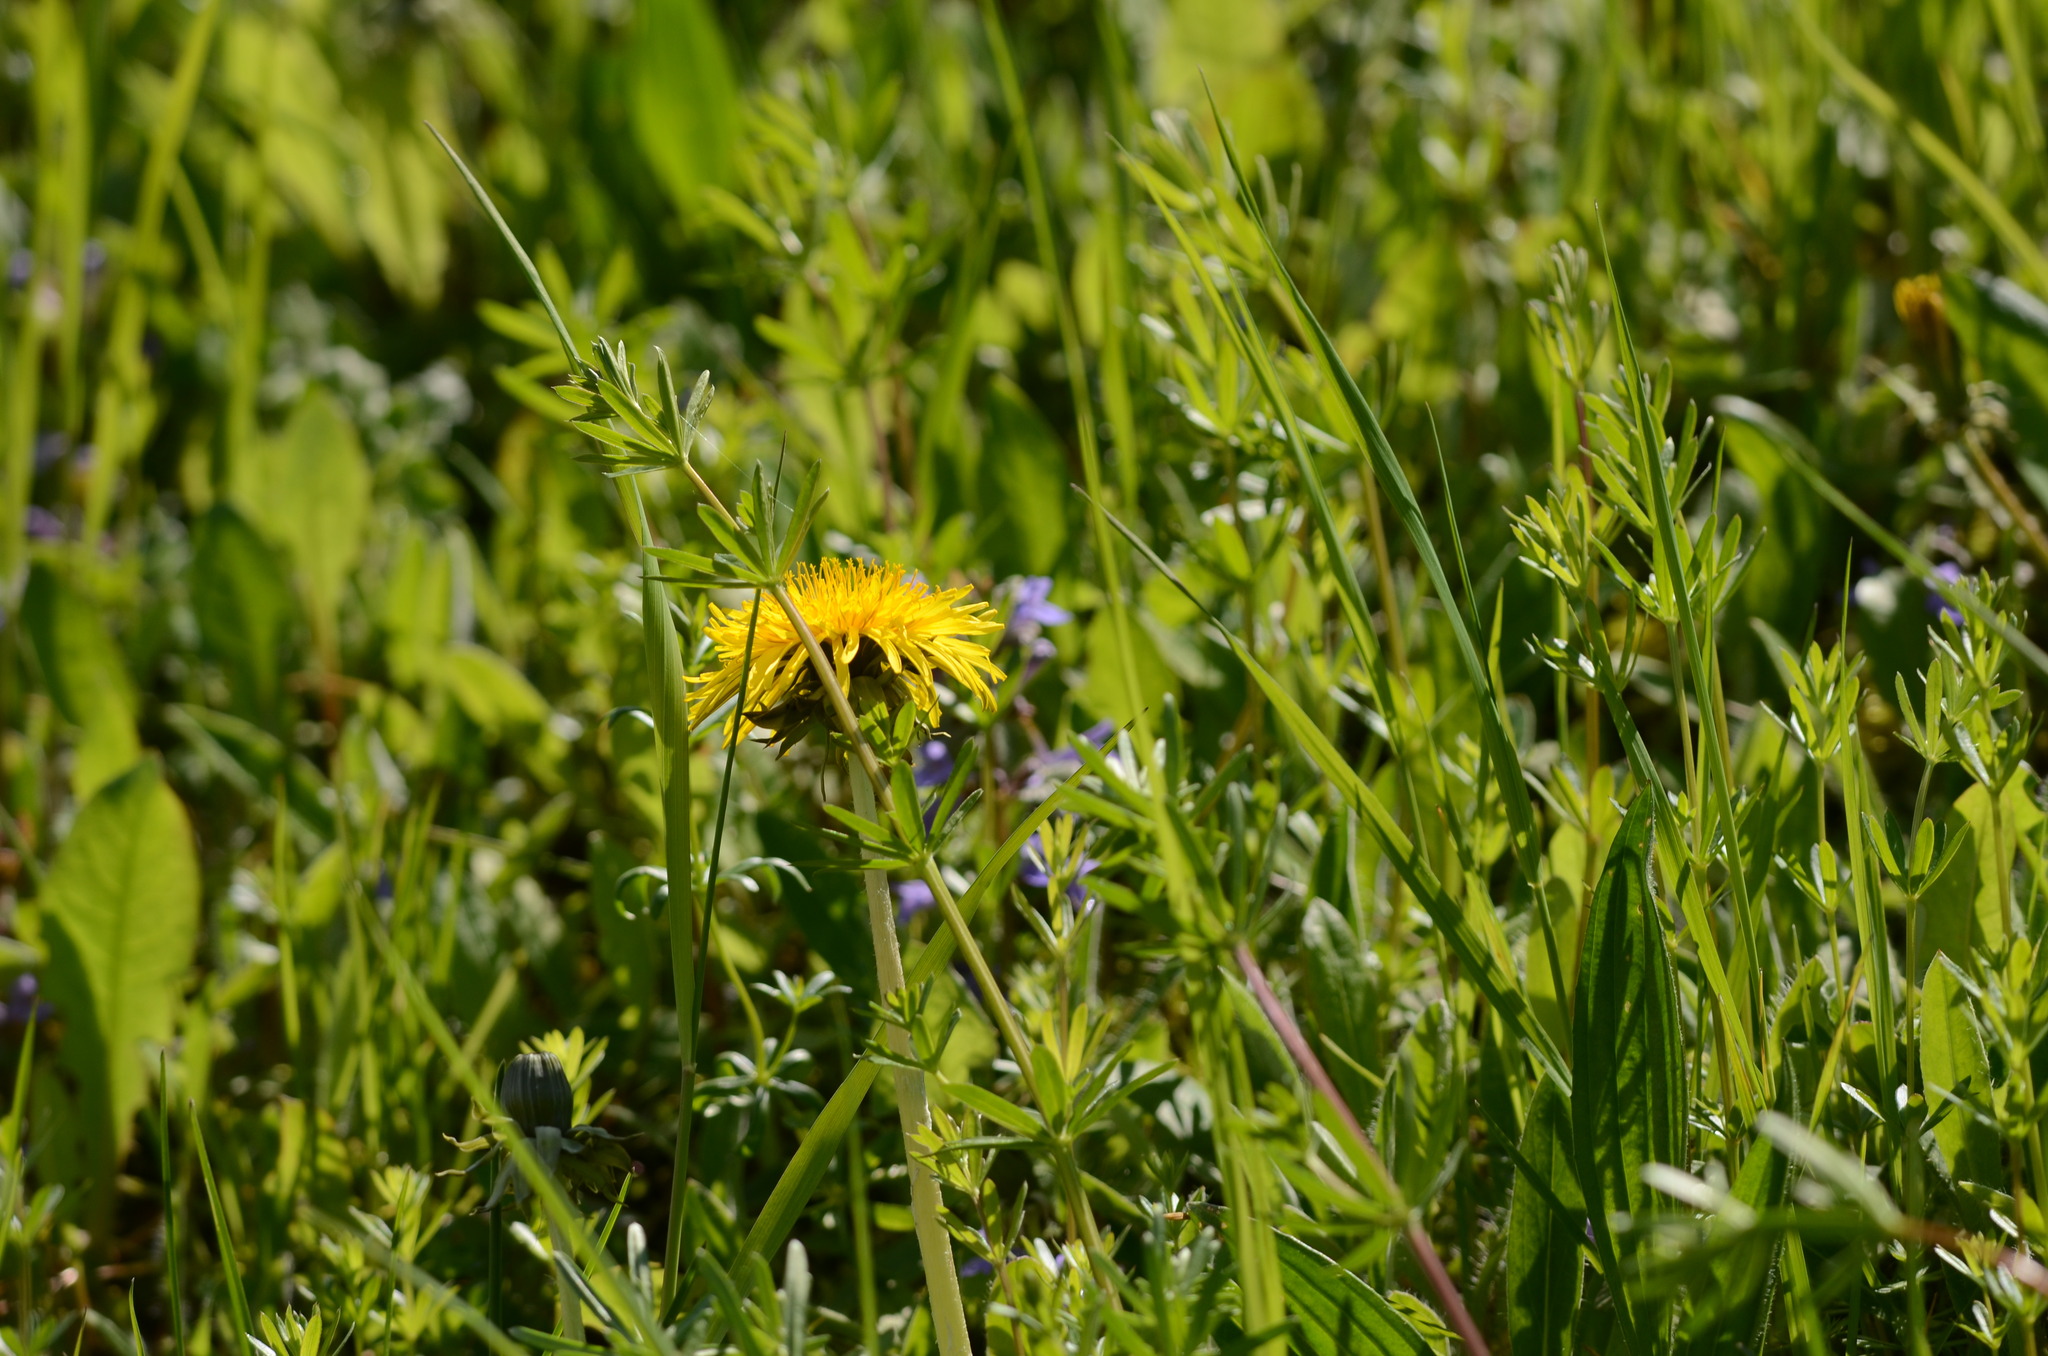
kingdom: Plantae
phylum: Tracheophyta
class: Magnoliopsida
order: Asterales
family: Asteraceae
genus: Taraxacum
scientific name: Taraxacum
